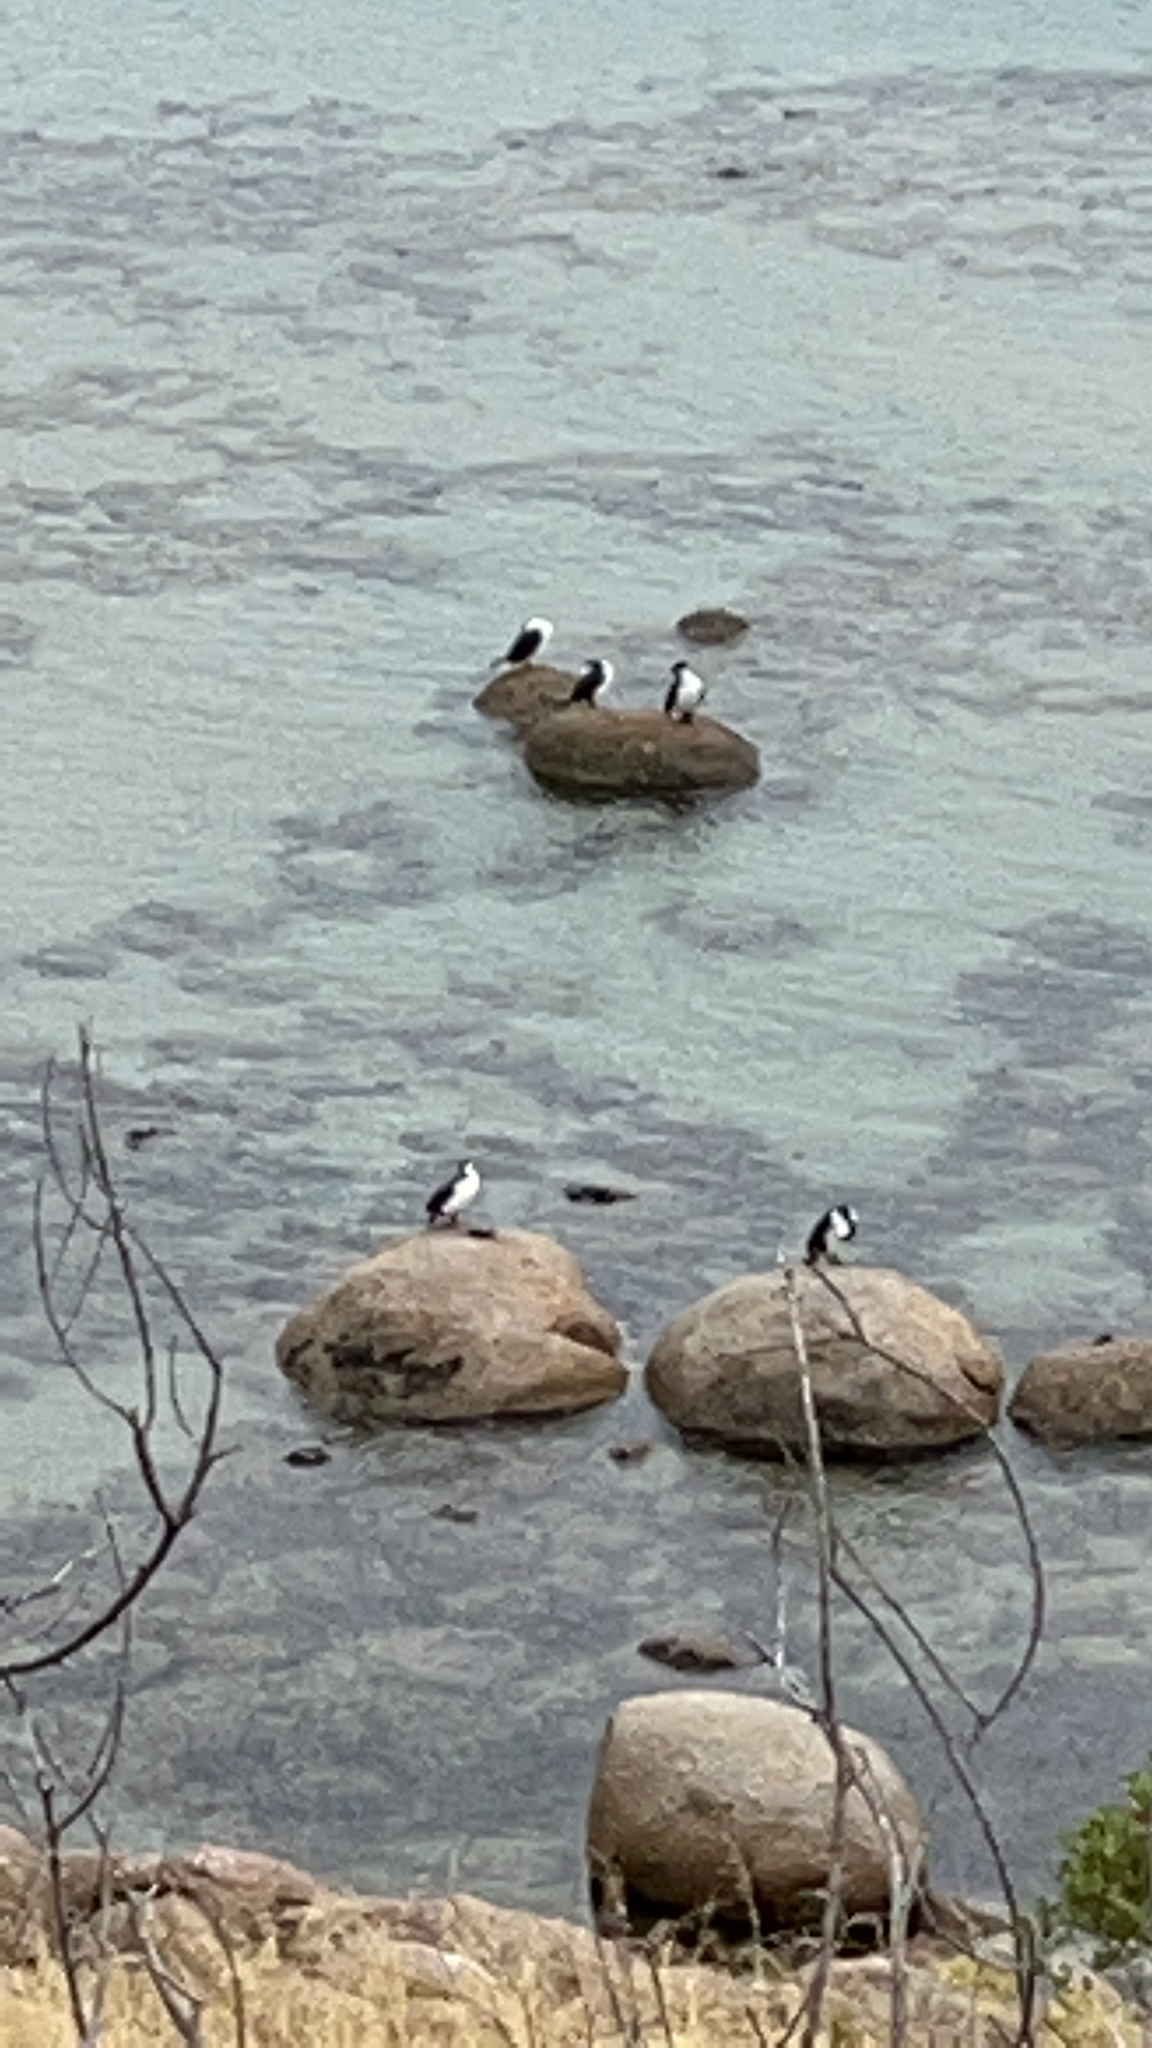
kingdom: Animalia
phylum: Chordata
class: Aves
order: Suliformes
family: Phalacrocoracidae
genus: Phalacrocorax
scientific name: Phalacrocorax varius
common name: Pied cormorant
